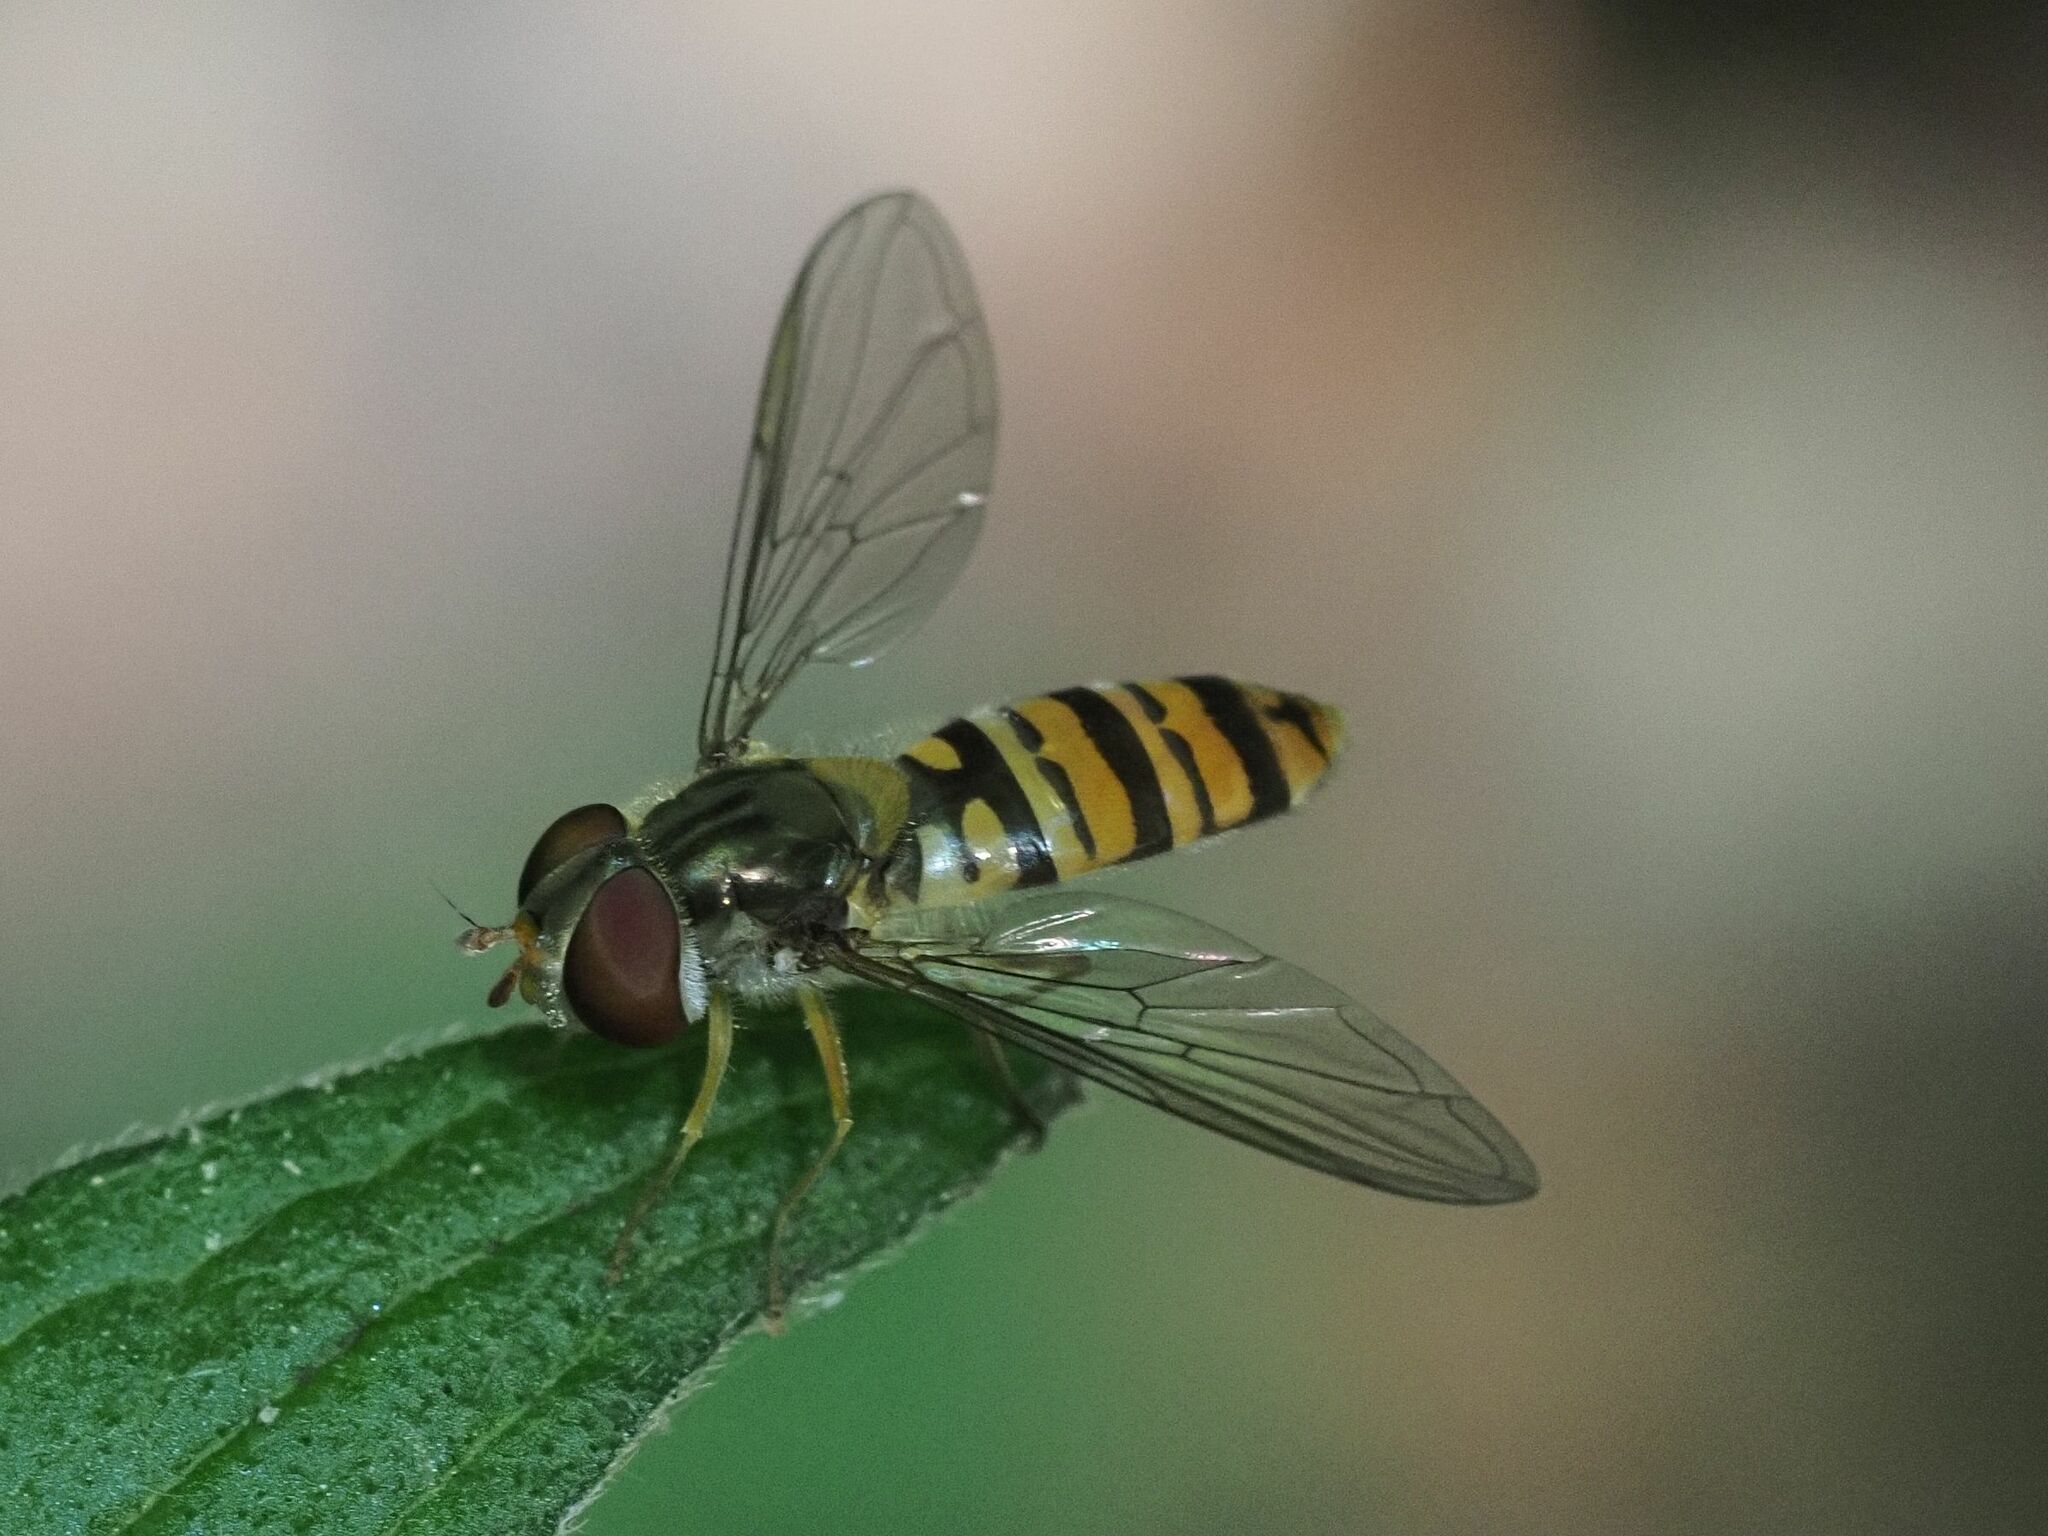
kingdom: Animalia
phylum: Arthropoda
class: Insecta
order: Diptera
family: Syrphidae
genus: Episyrphus
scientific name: Episyrphus balteatus
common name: Marmalade hoverfly
